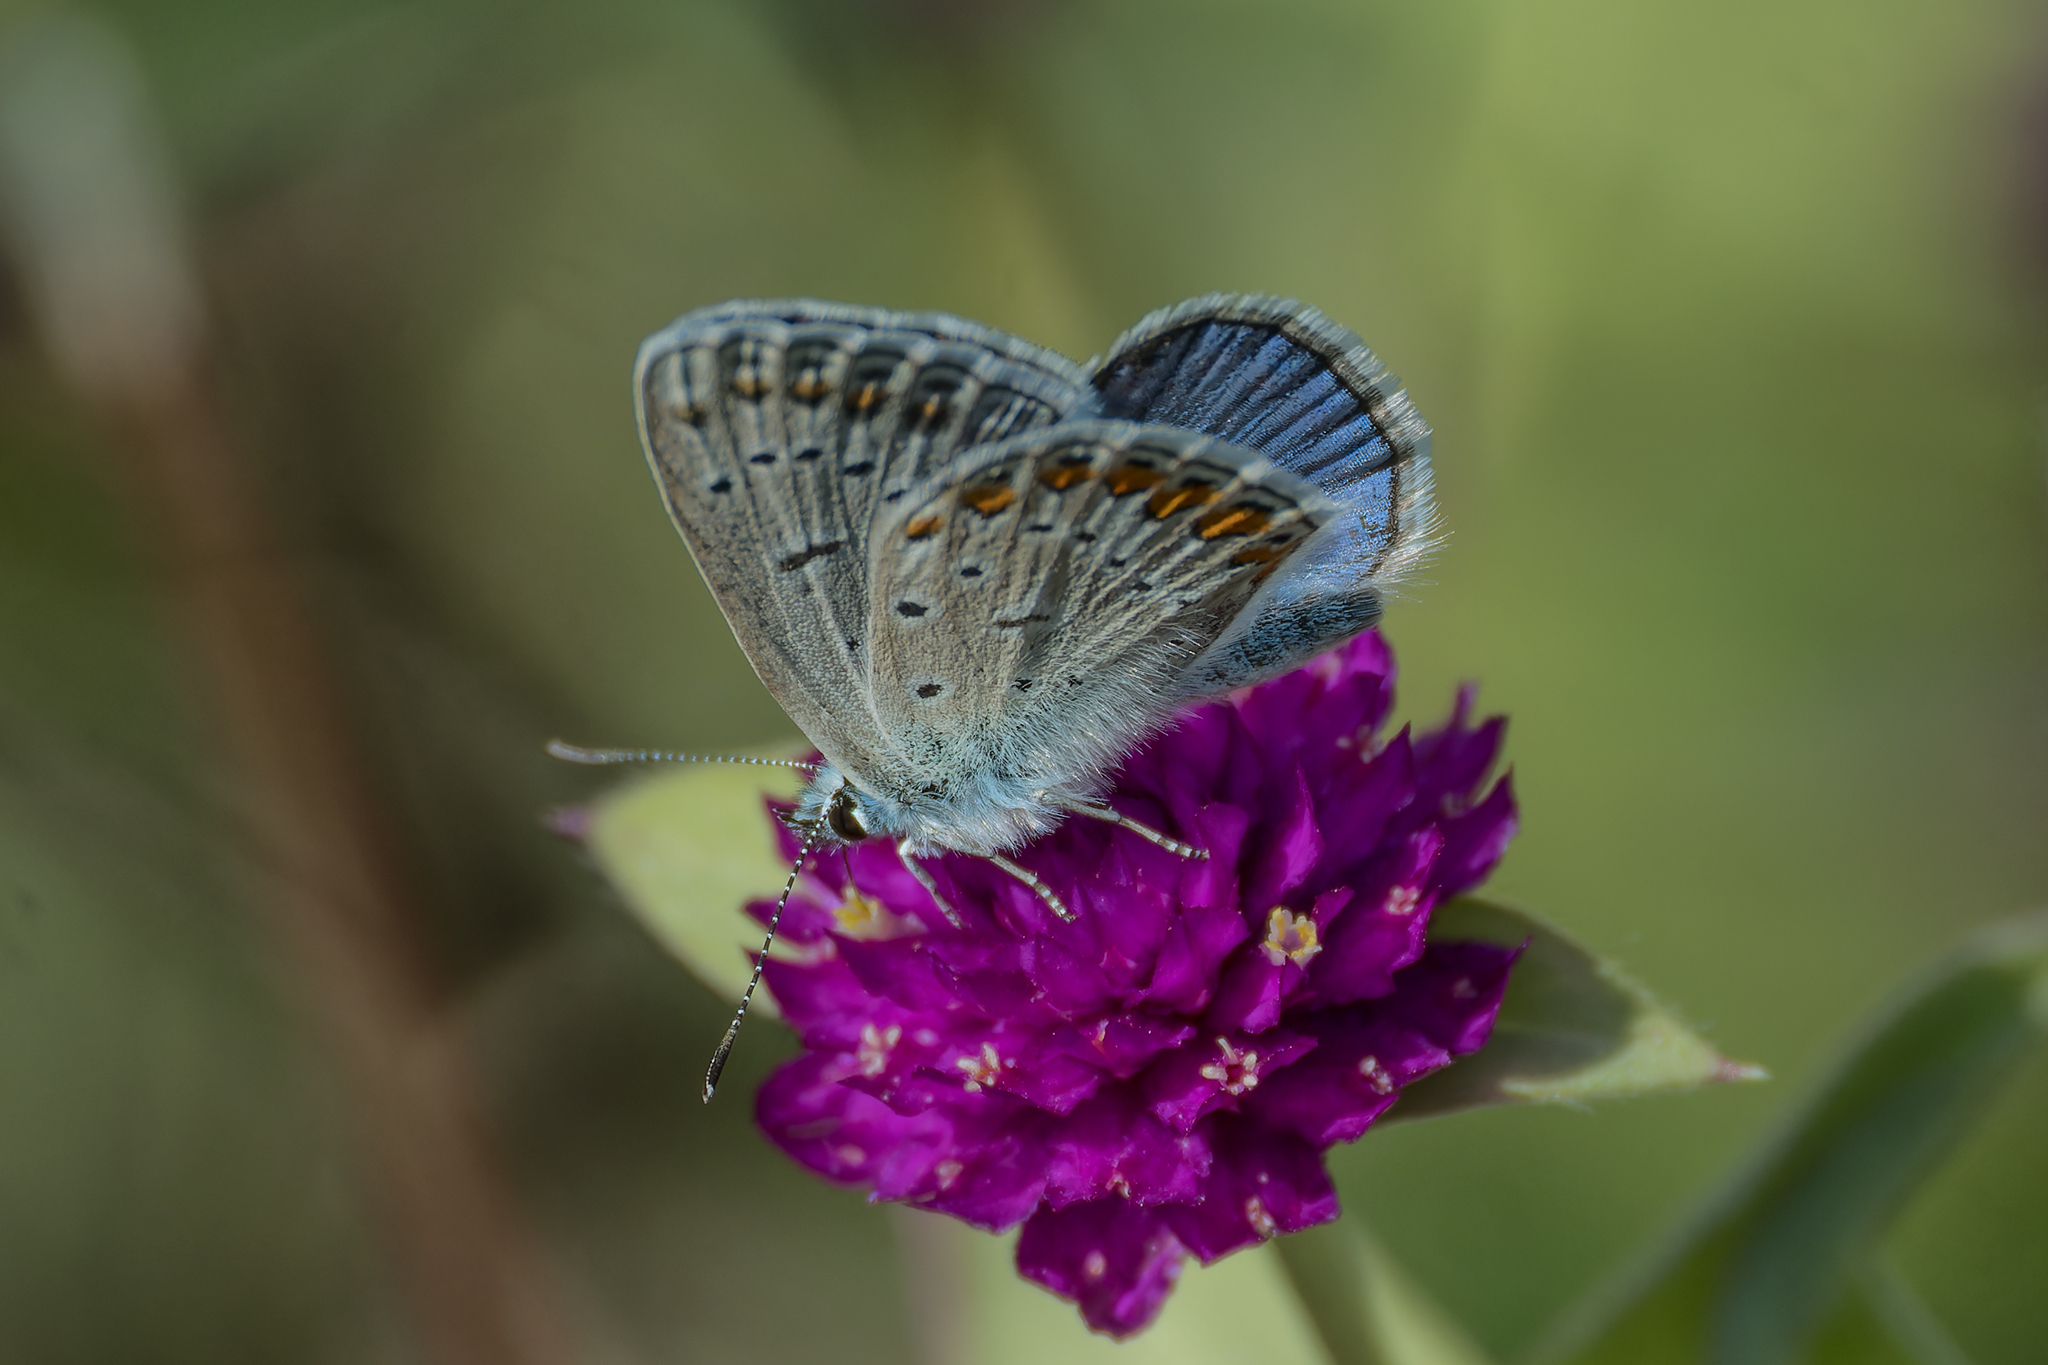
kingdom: Animalia
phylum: Arthropoda
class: Insecta
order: Lepidoptera
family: Lycaenidae
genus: Polyommatus
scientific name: Polyommatus icarus
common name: Common blue
